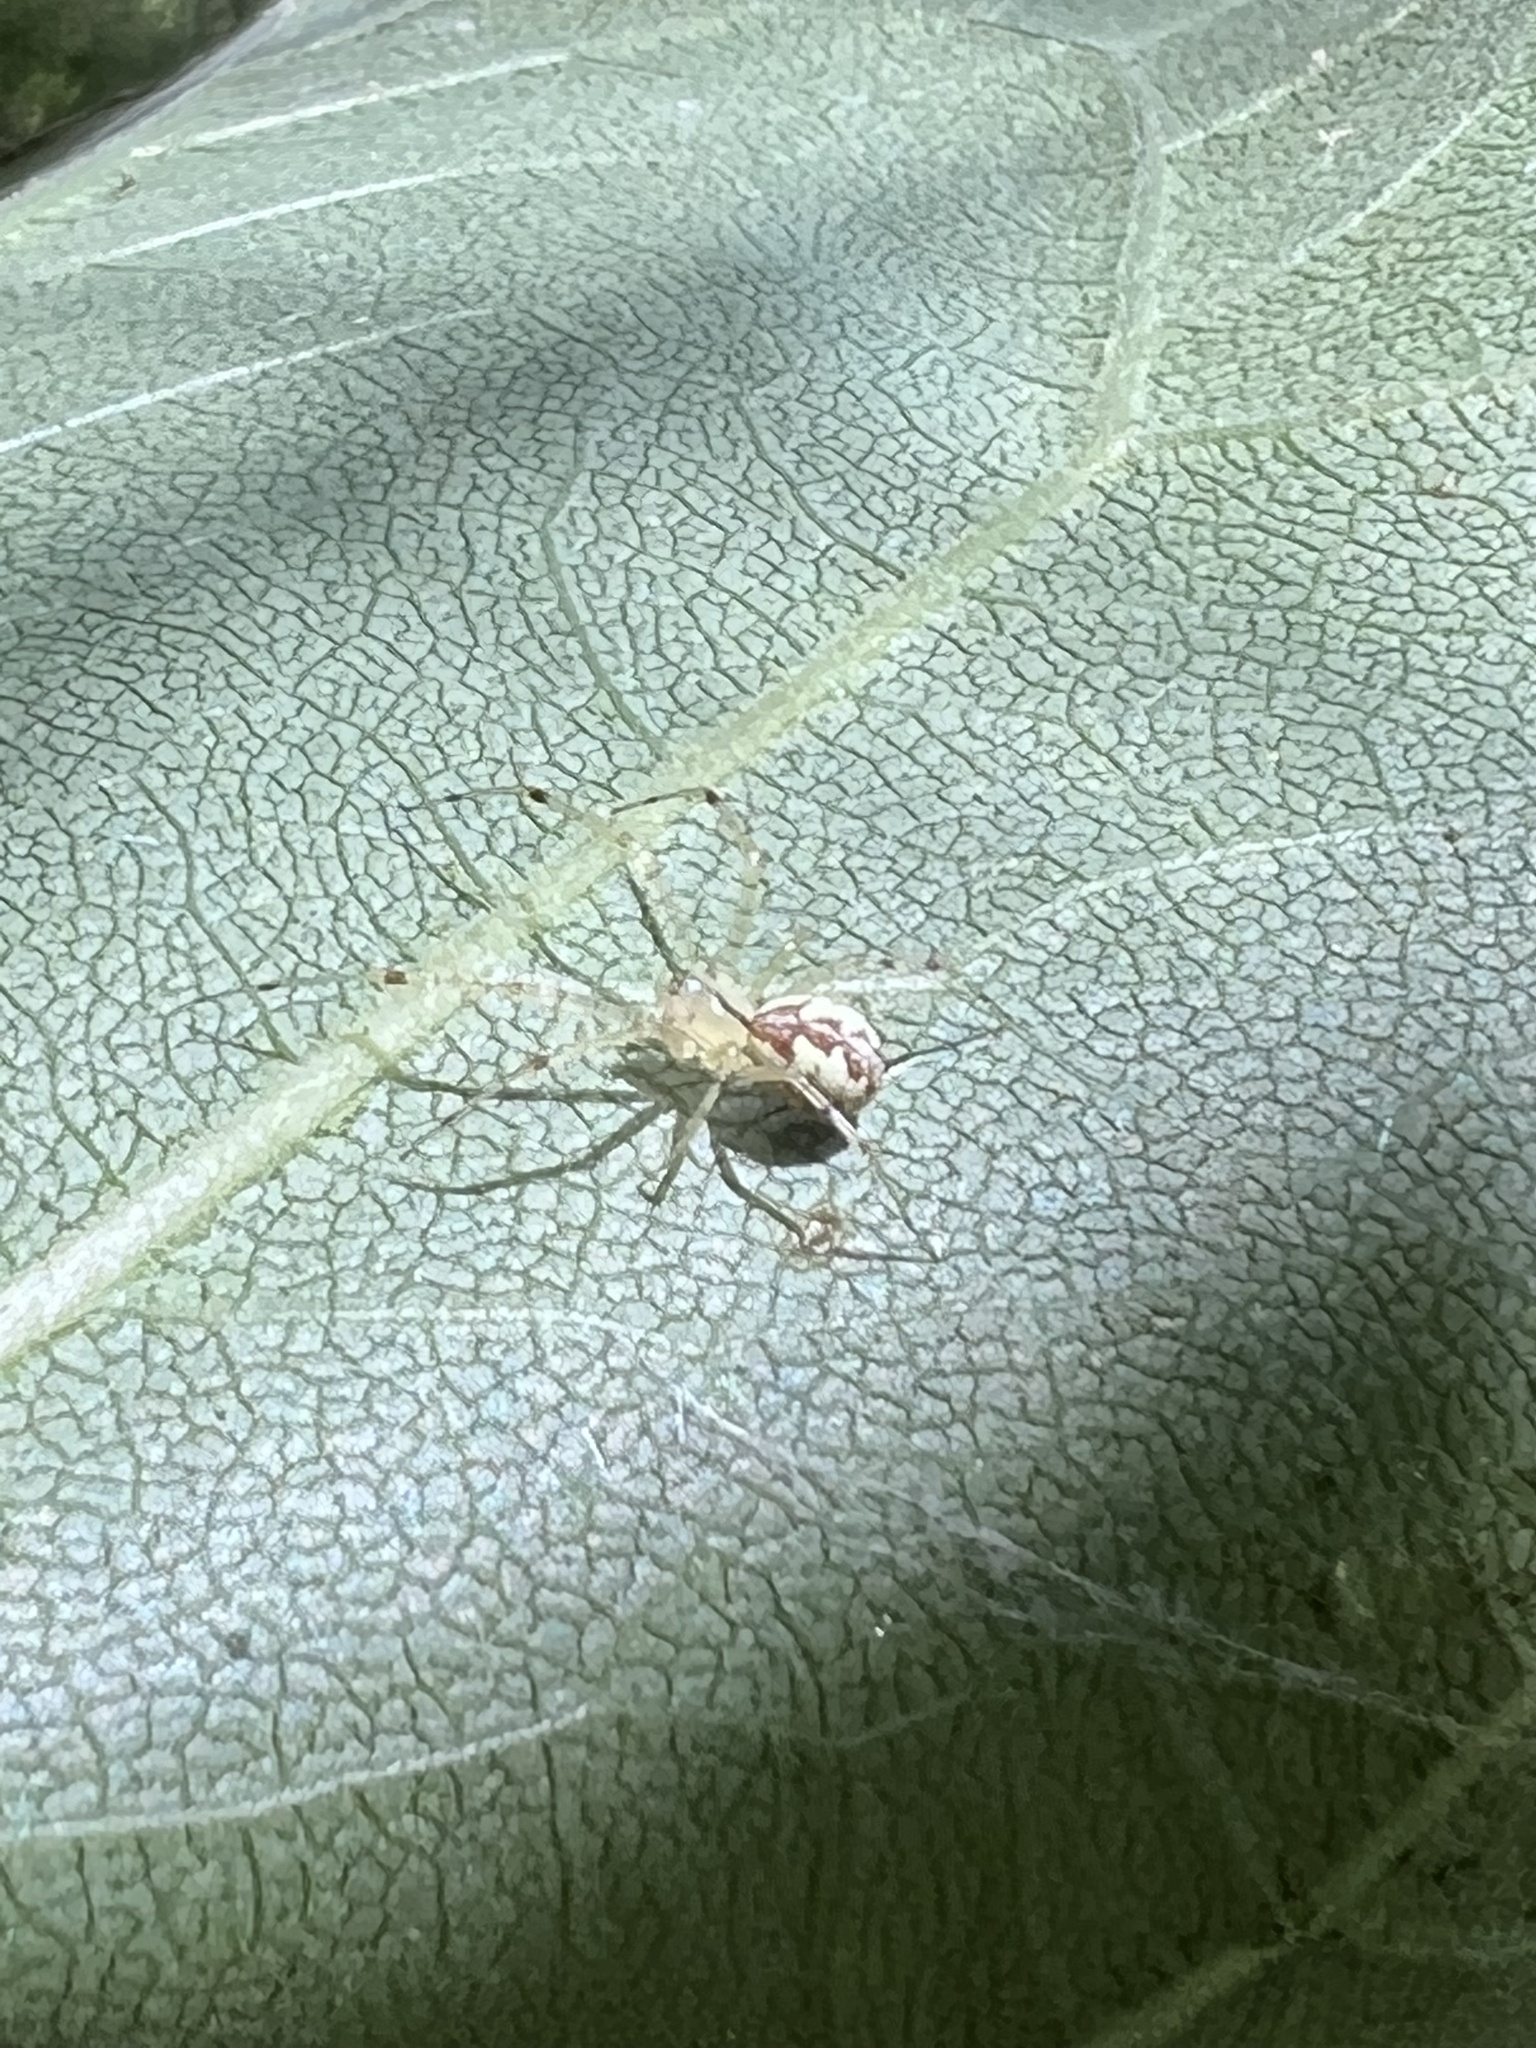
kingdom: Animalia
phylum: Arthropoda
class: Arachnida
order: Araneae
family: Theridiidae
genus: Phylloneta
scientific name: Phylloneta pictipes
